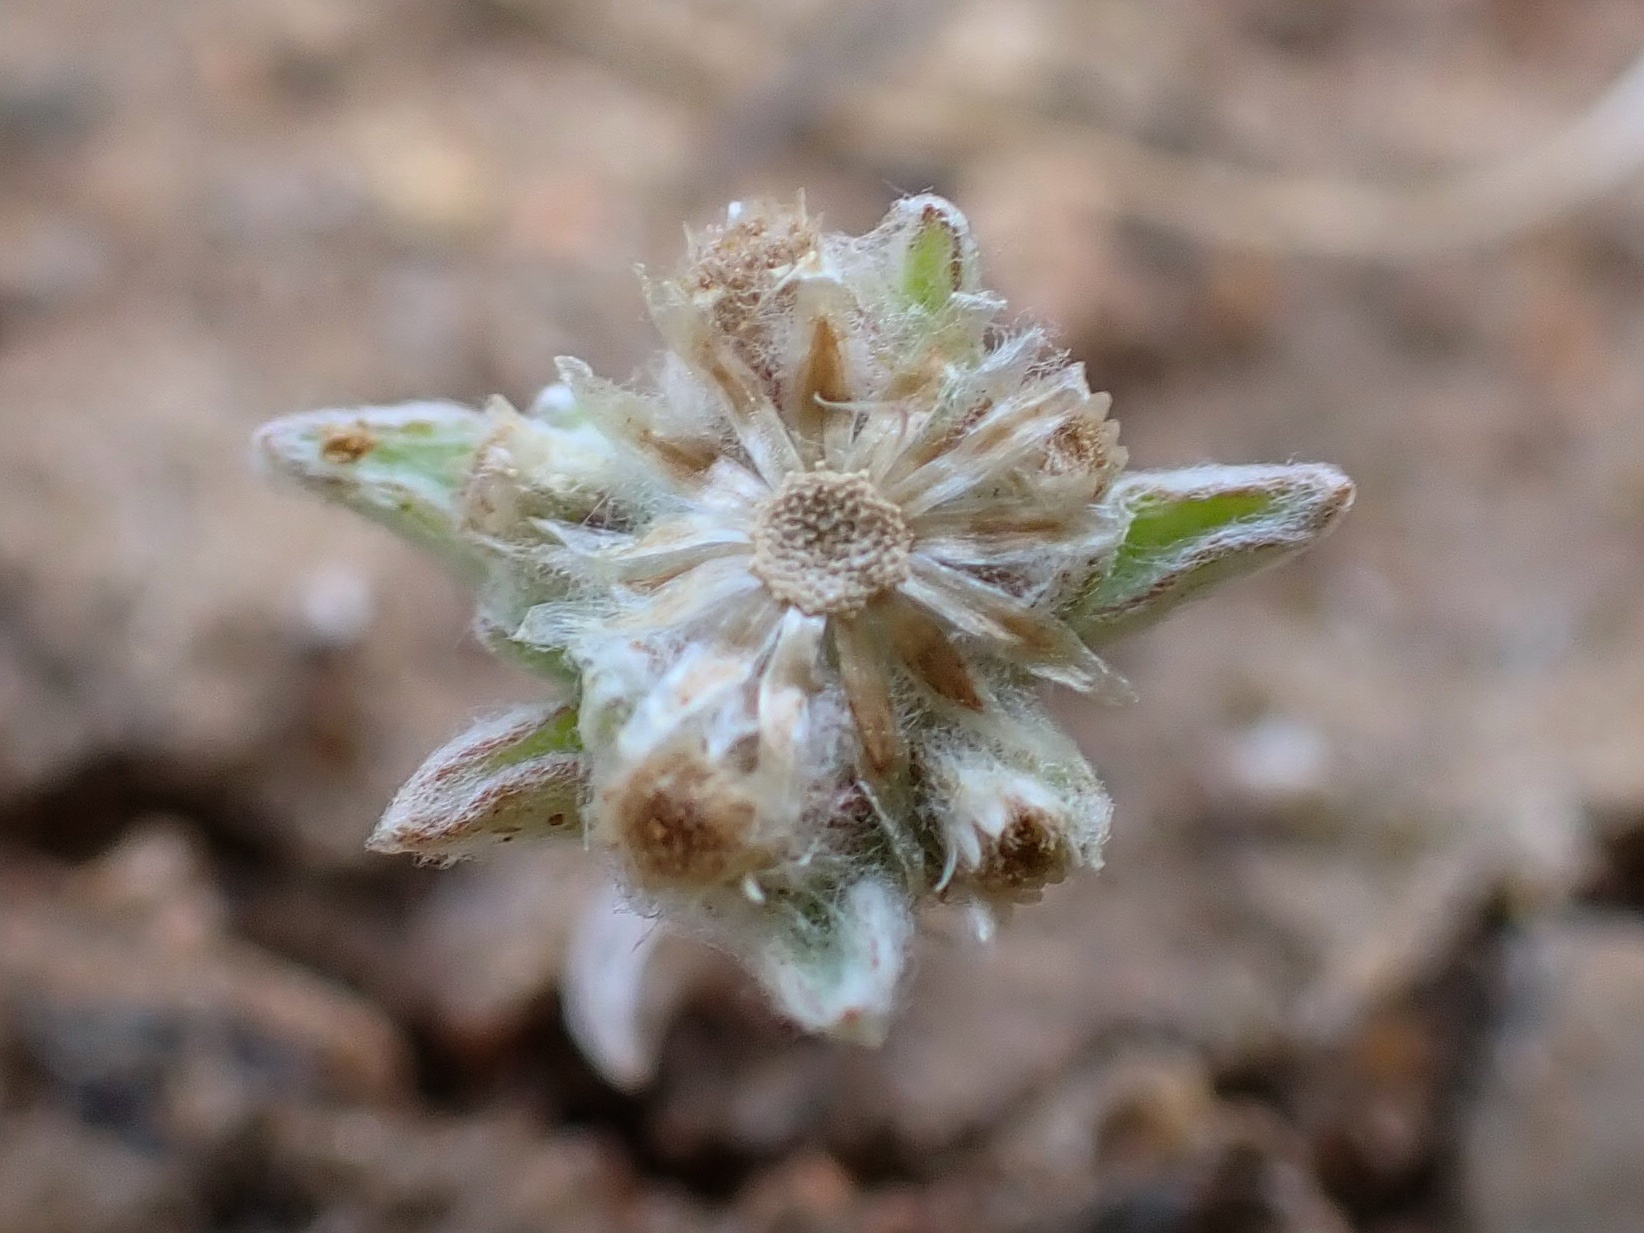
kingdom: Plantae
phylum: Tracheophyta
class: Magnoliopsida
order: Asterales
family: Asteraceae
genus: Gnaphalium
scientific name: Gnaphalium palustre
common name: Western marsh cudweed
